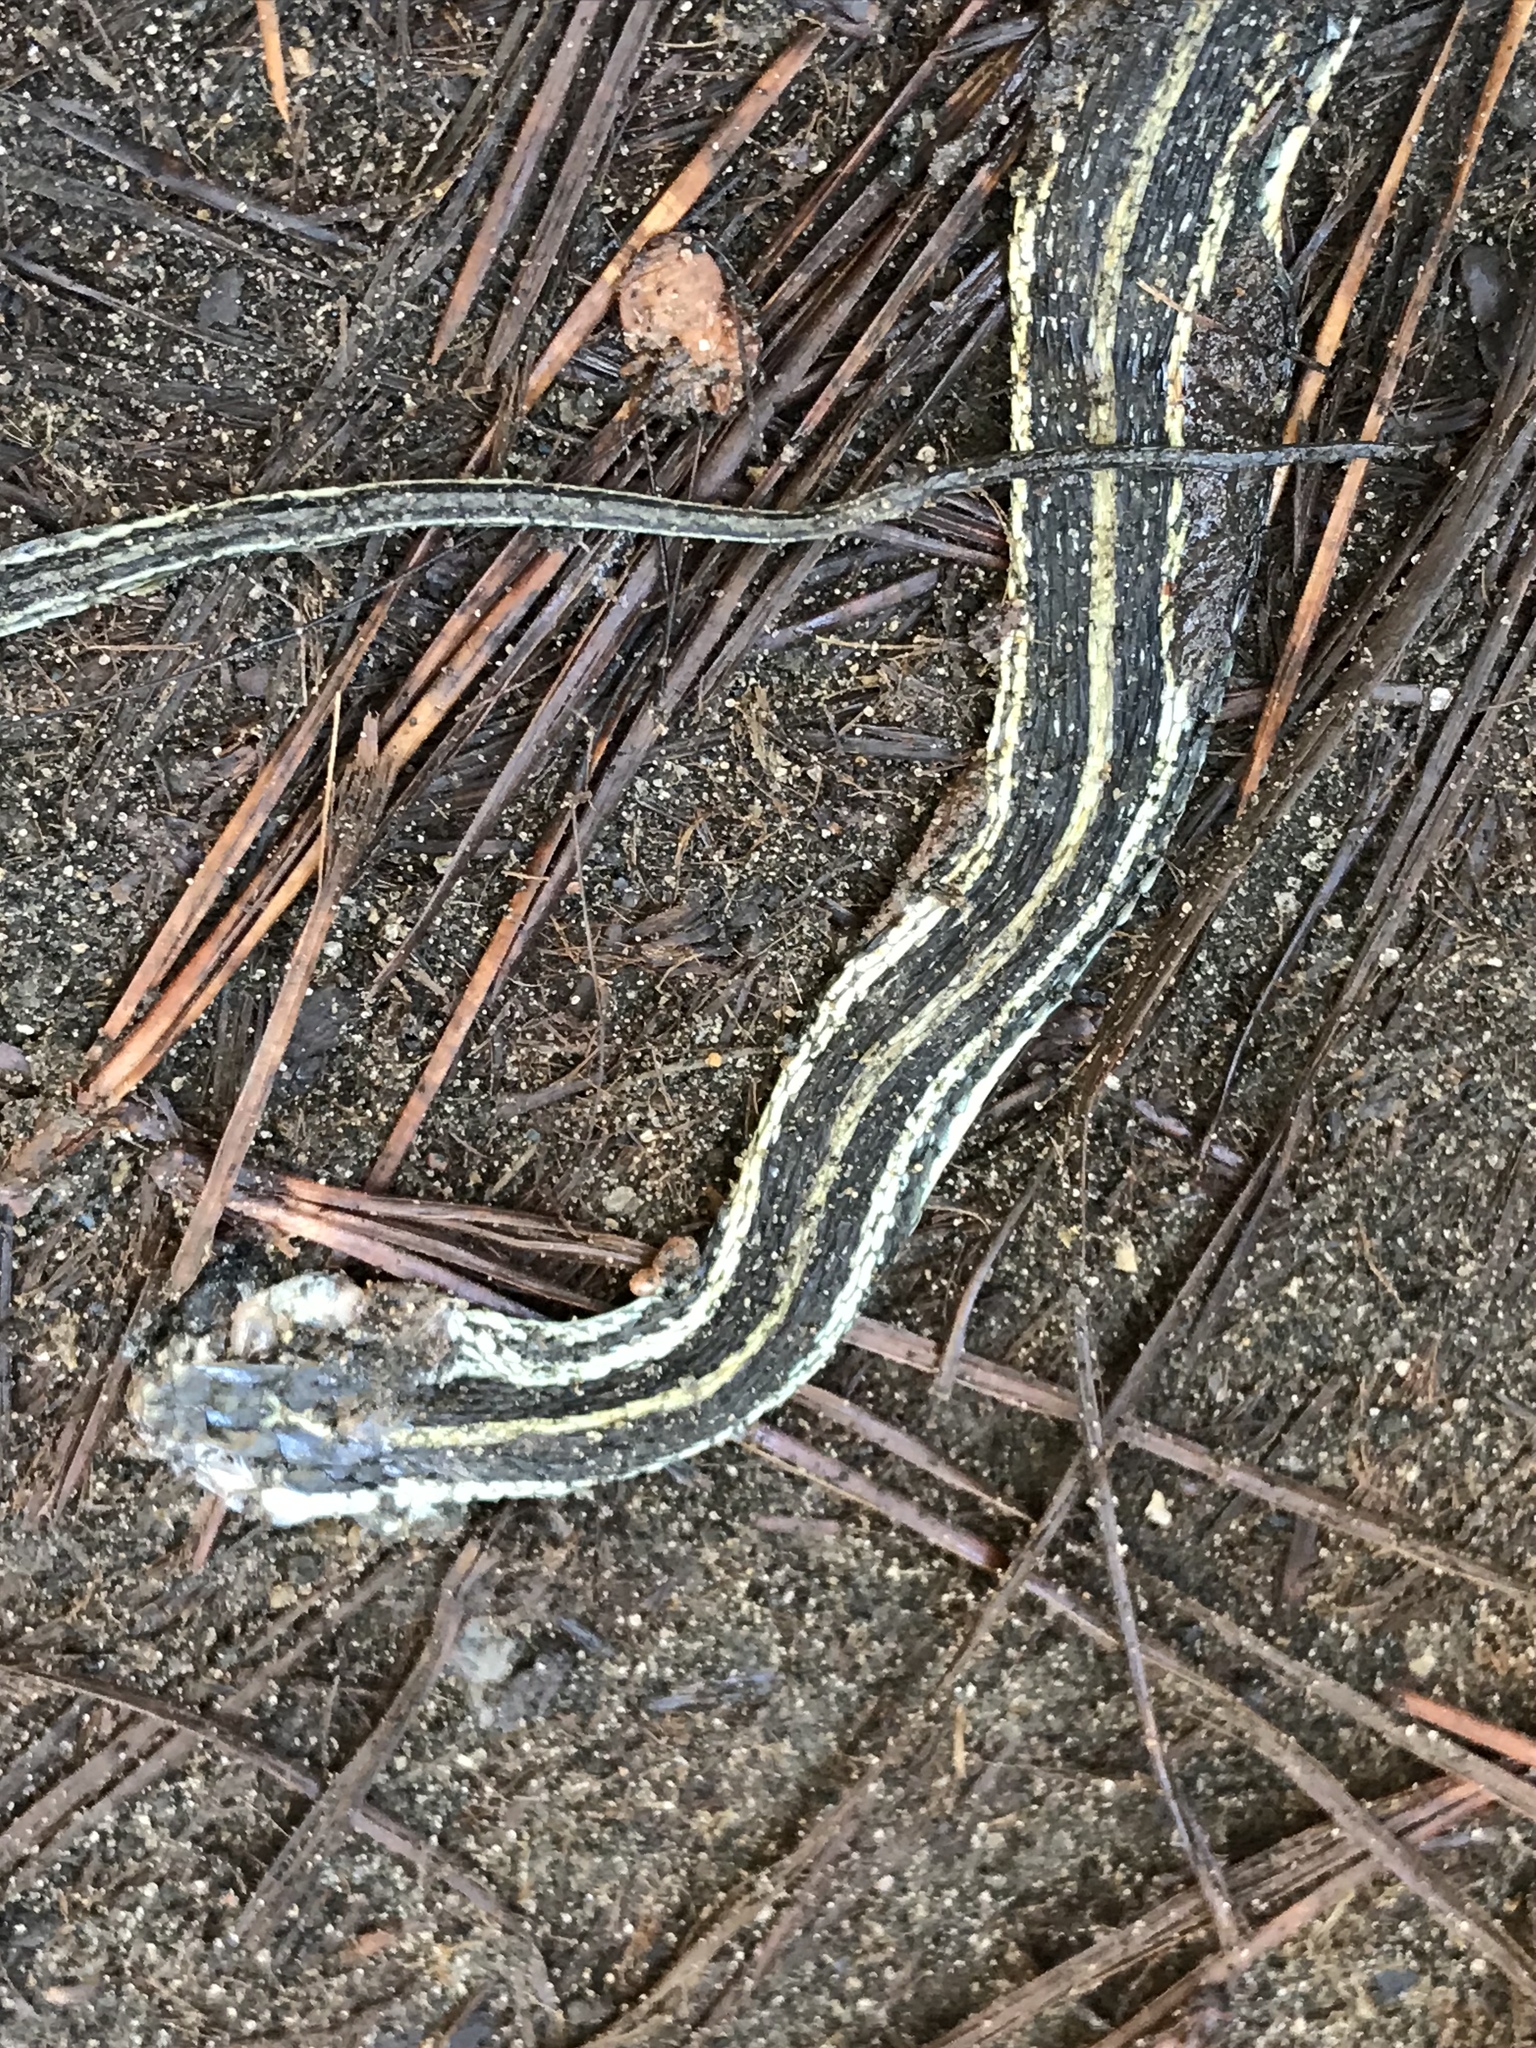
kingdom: Animalia
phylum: Chordata
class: Squamata
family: Colubridae
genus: Thamnophis
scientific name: Thamnophis proximus
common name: Western ribbon snake
